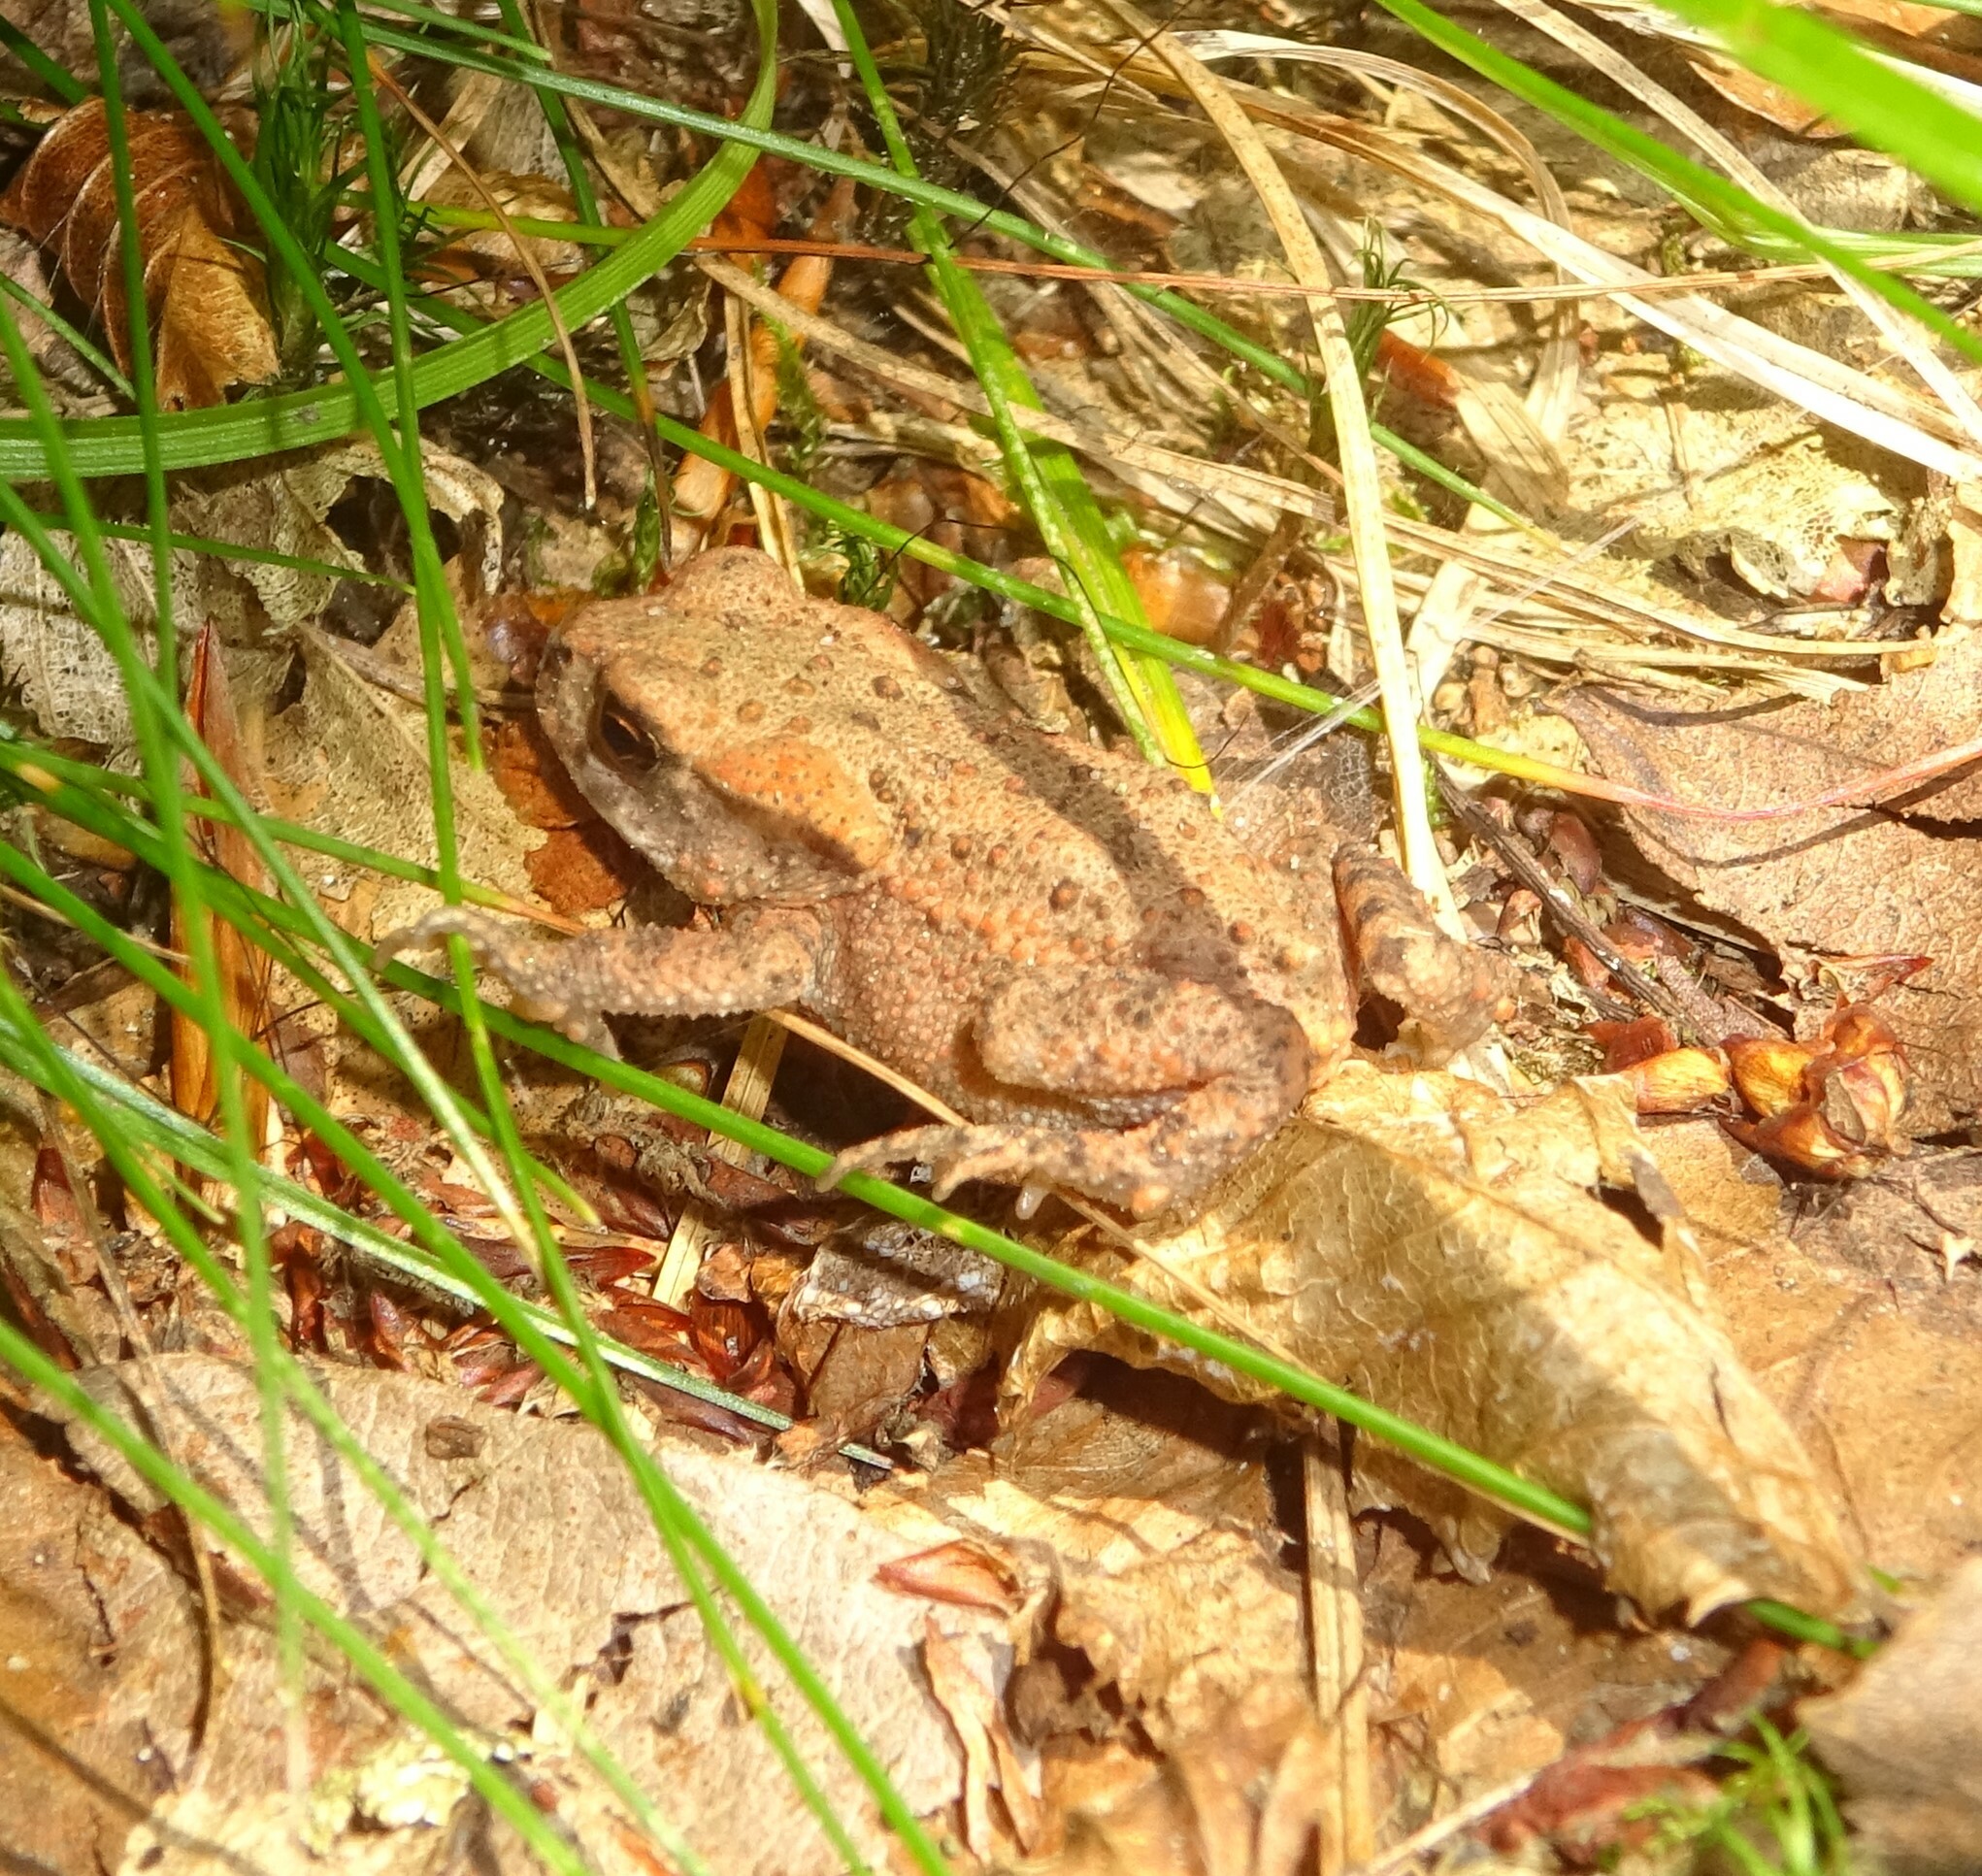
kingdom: Animalia
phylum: Chordata
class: Amphibia
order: Anura
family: Bufonidae
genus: Bufo
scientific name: Bufo bufo
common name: Common toad
